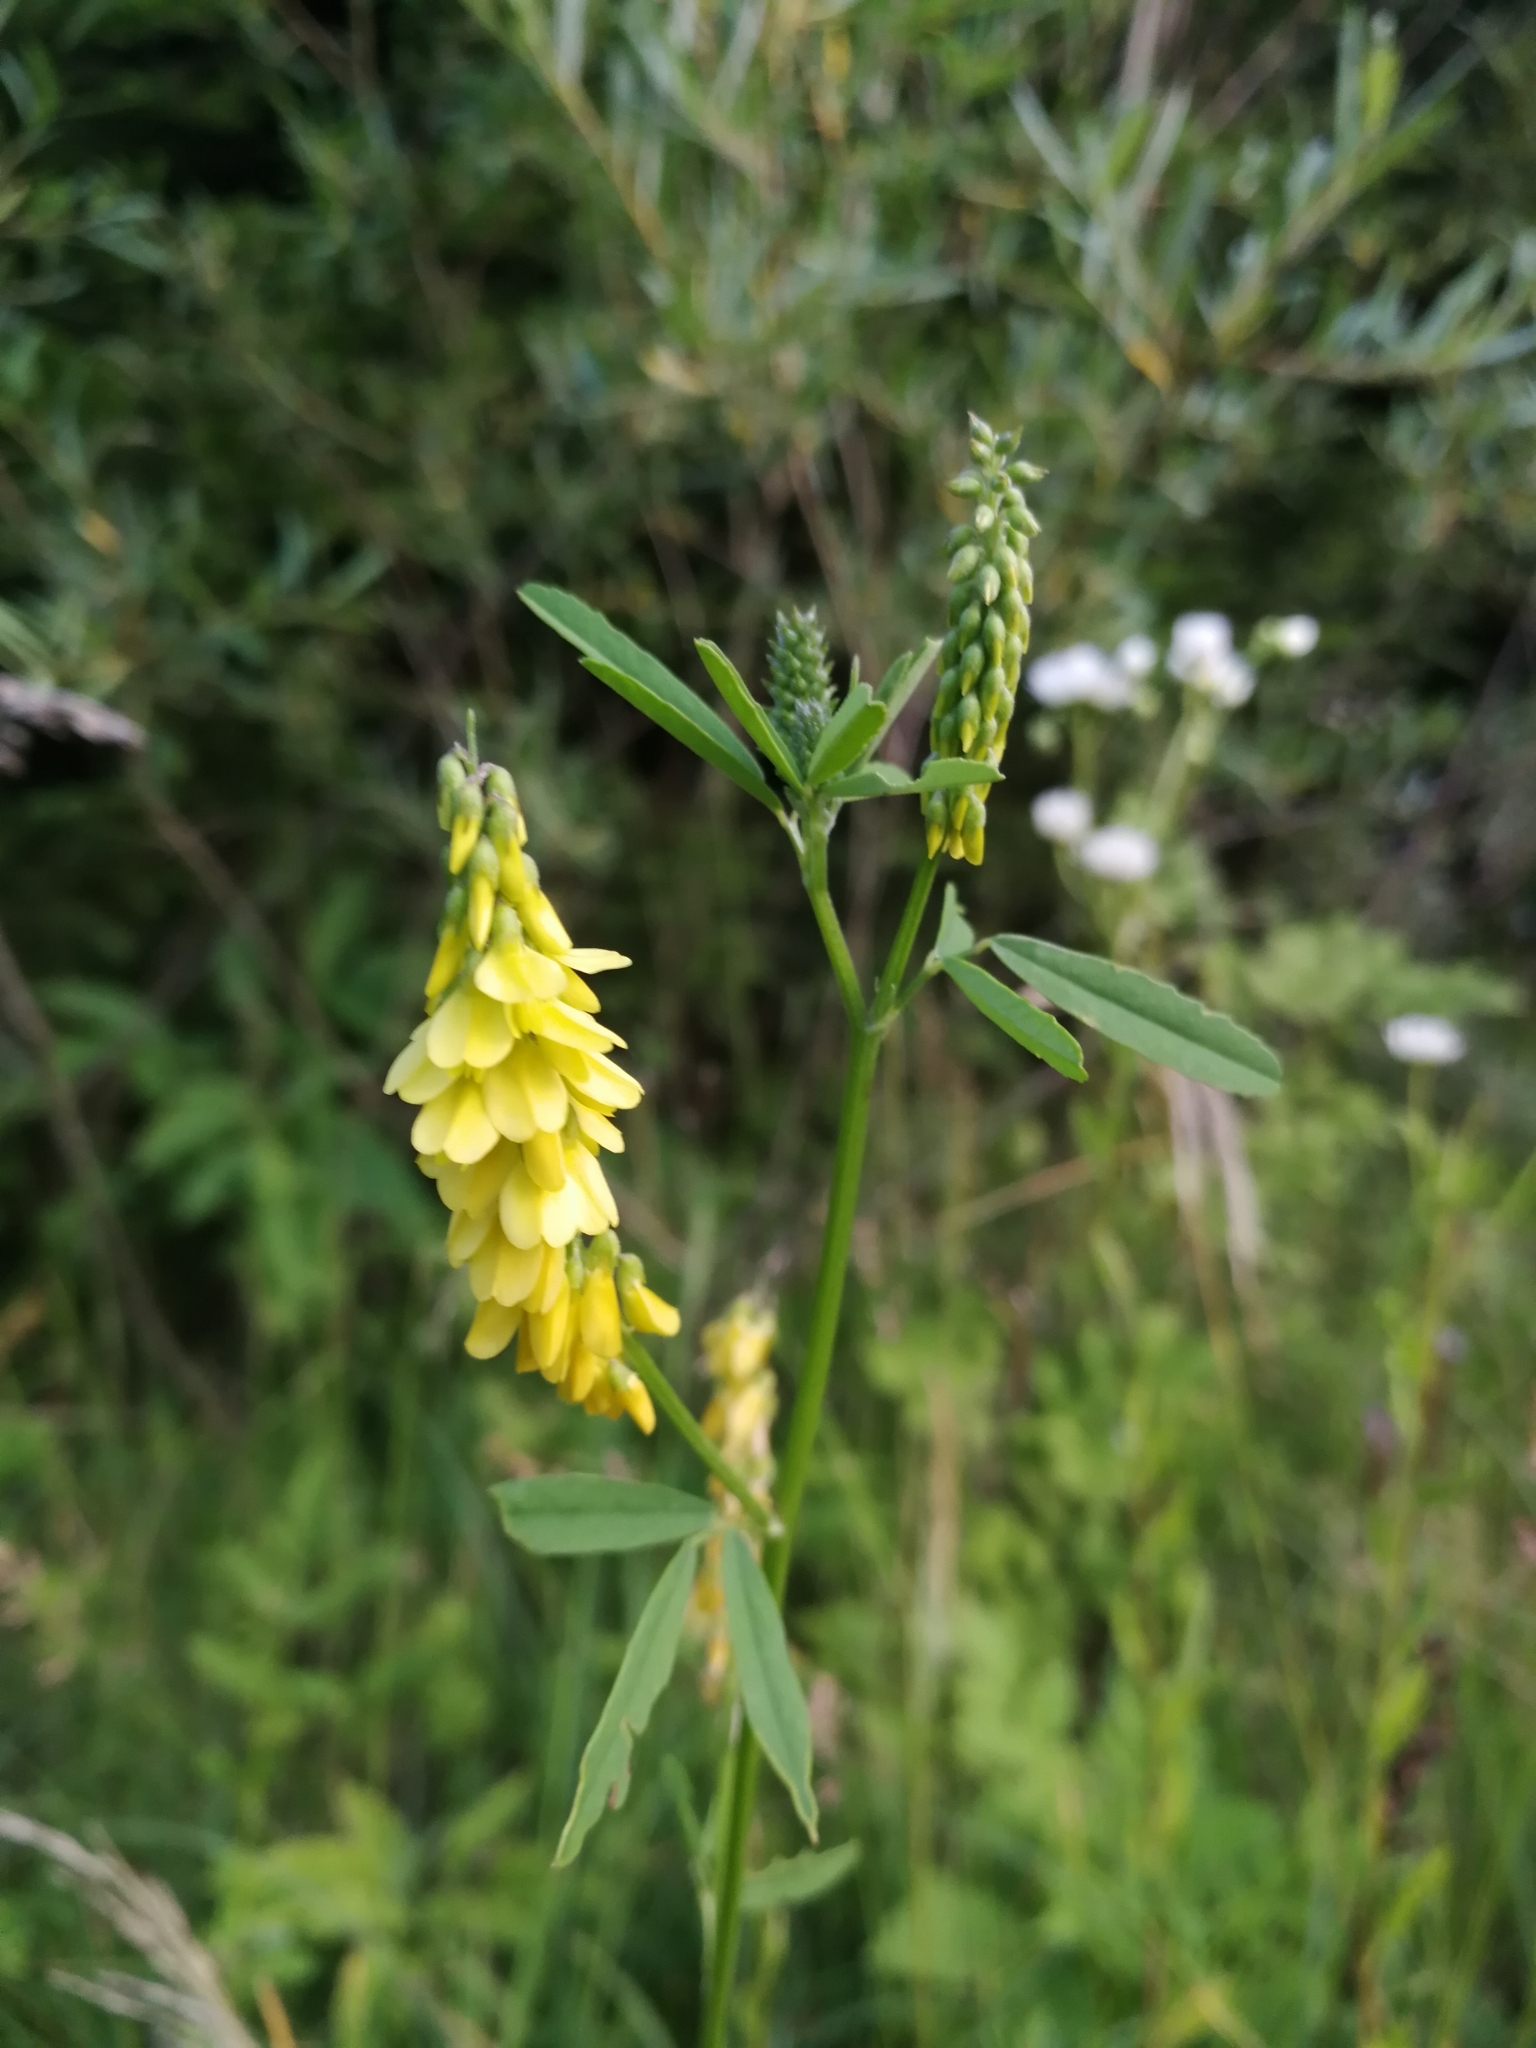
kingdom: Plantae
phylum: Tracheophyta
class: Magnoliopsida
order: Fabales
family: Fabaceae
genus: Melilotus
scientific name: Melilotus officinalis
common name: Sweetclover
